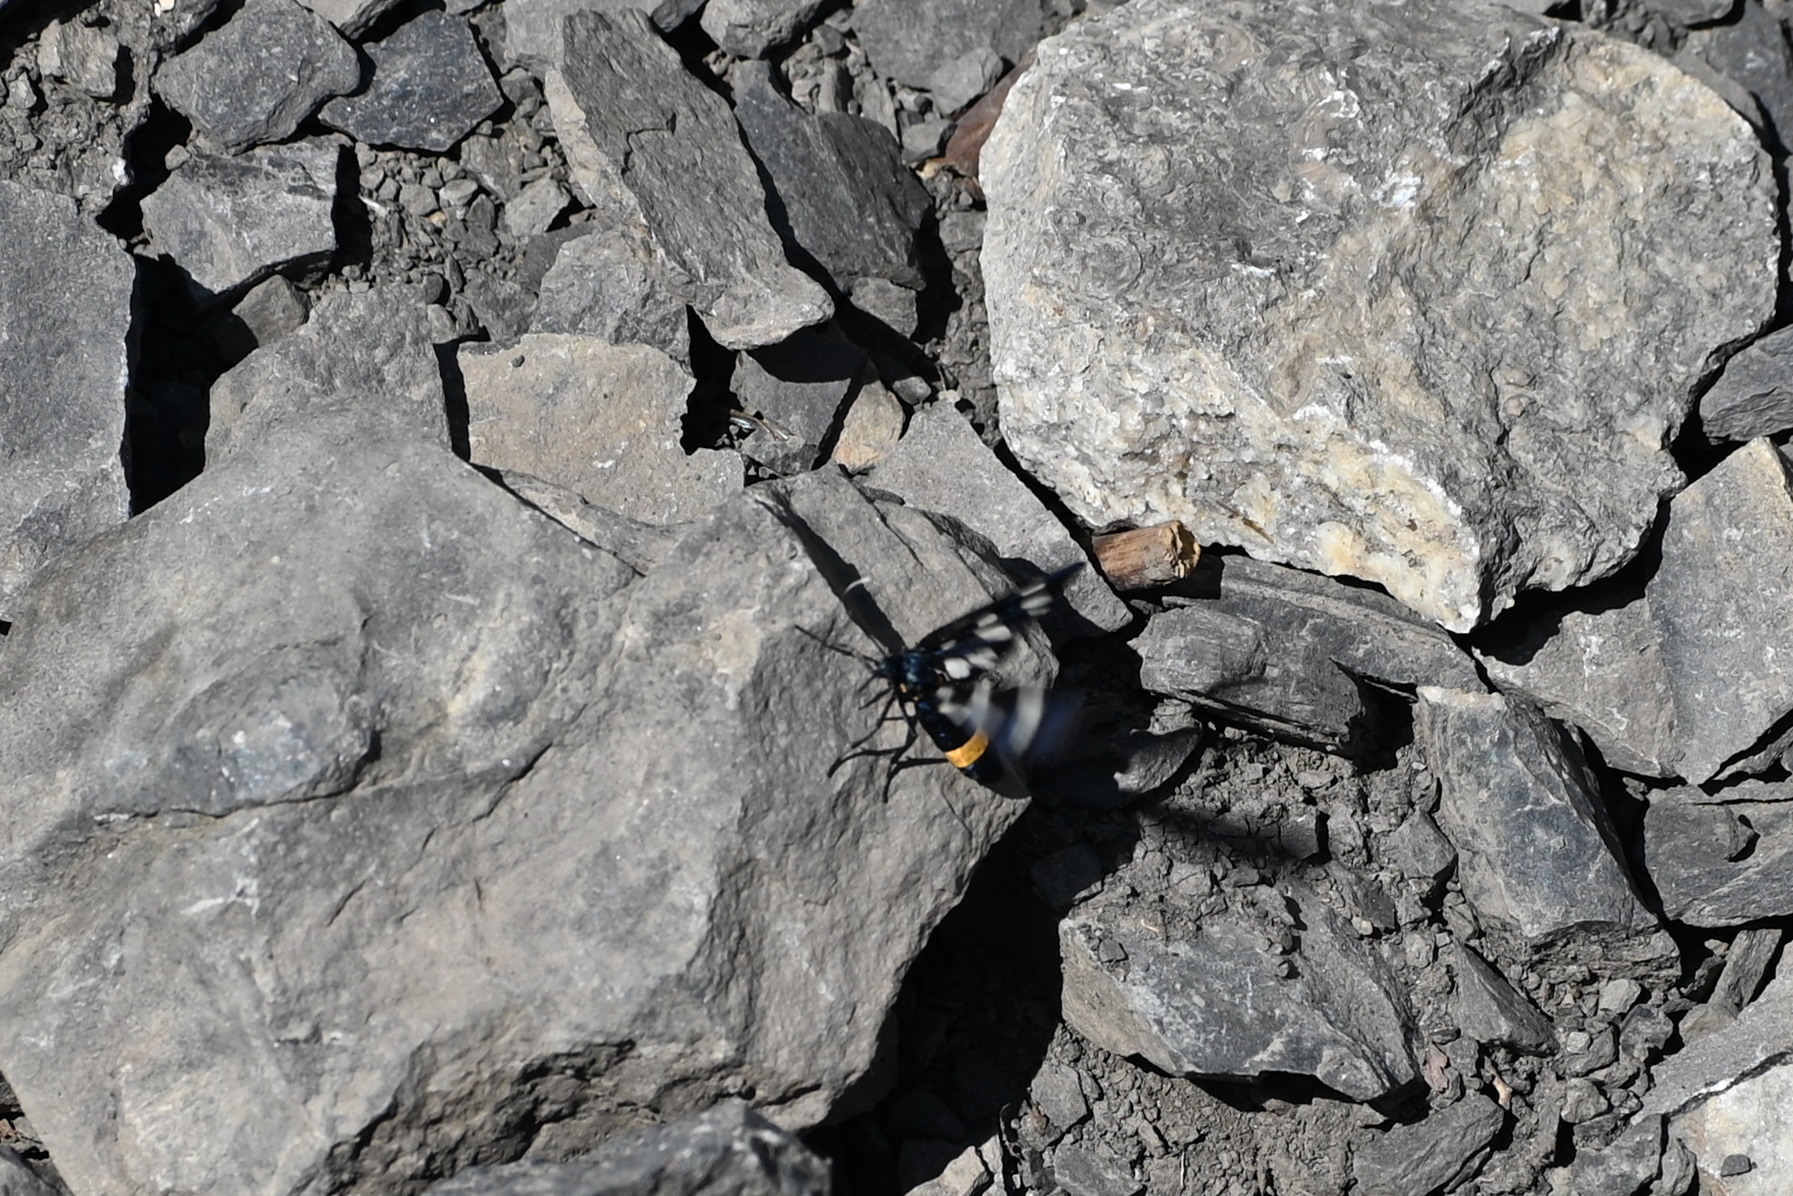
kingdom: Animalia
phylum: Arthropoda
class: Insecta
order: Lepidoptera
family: Erebidae
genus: Amata
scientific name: Amata phegea
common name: Nine-spotted
